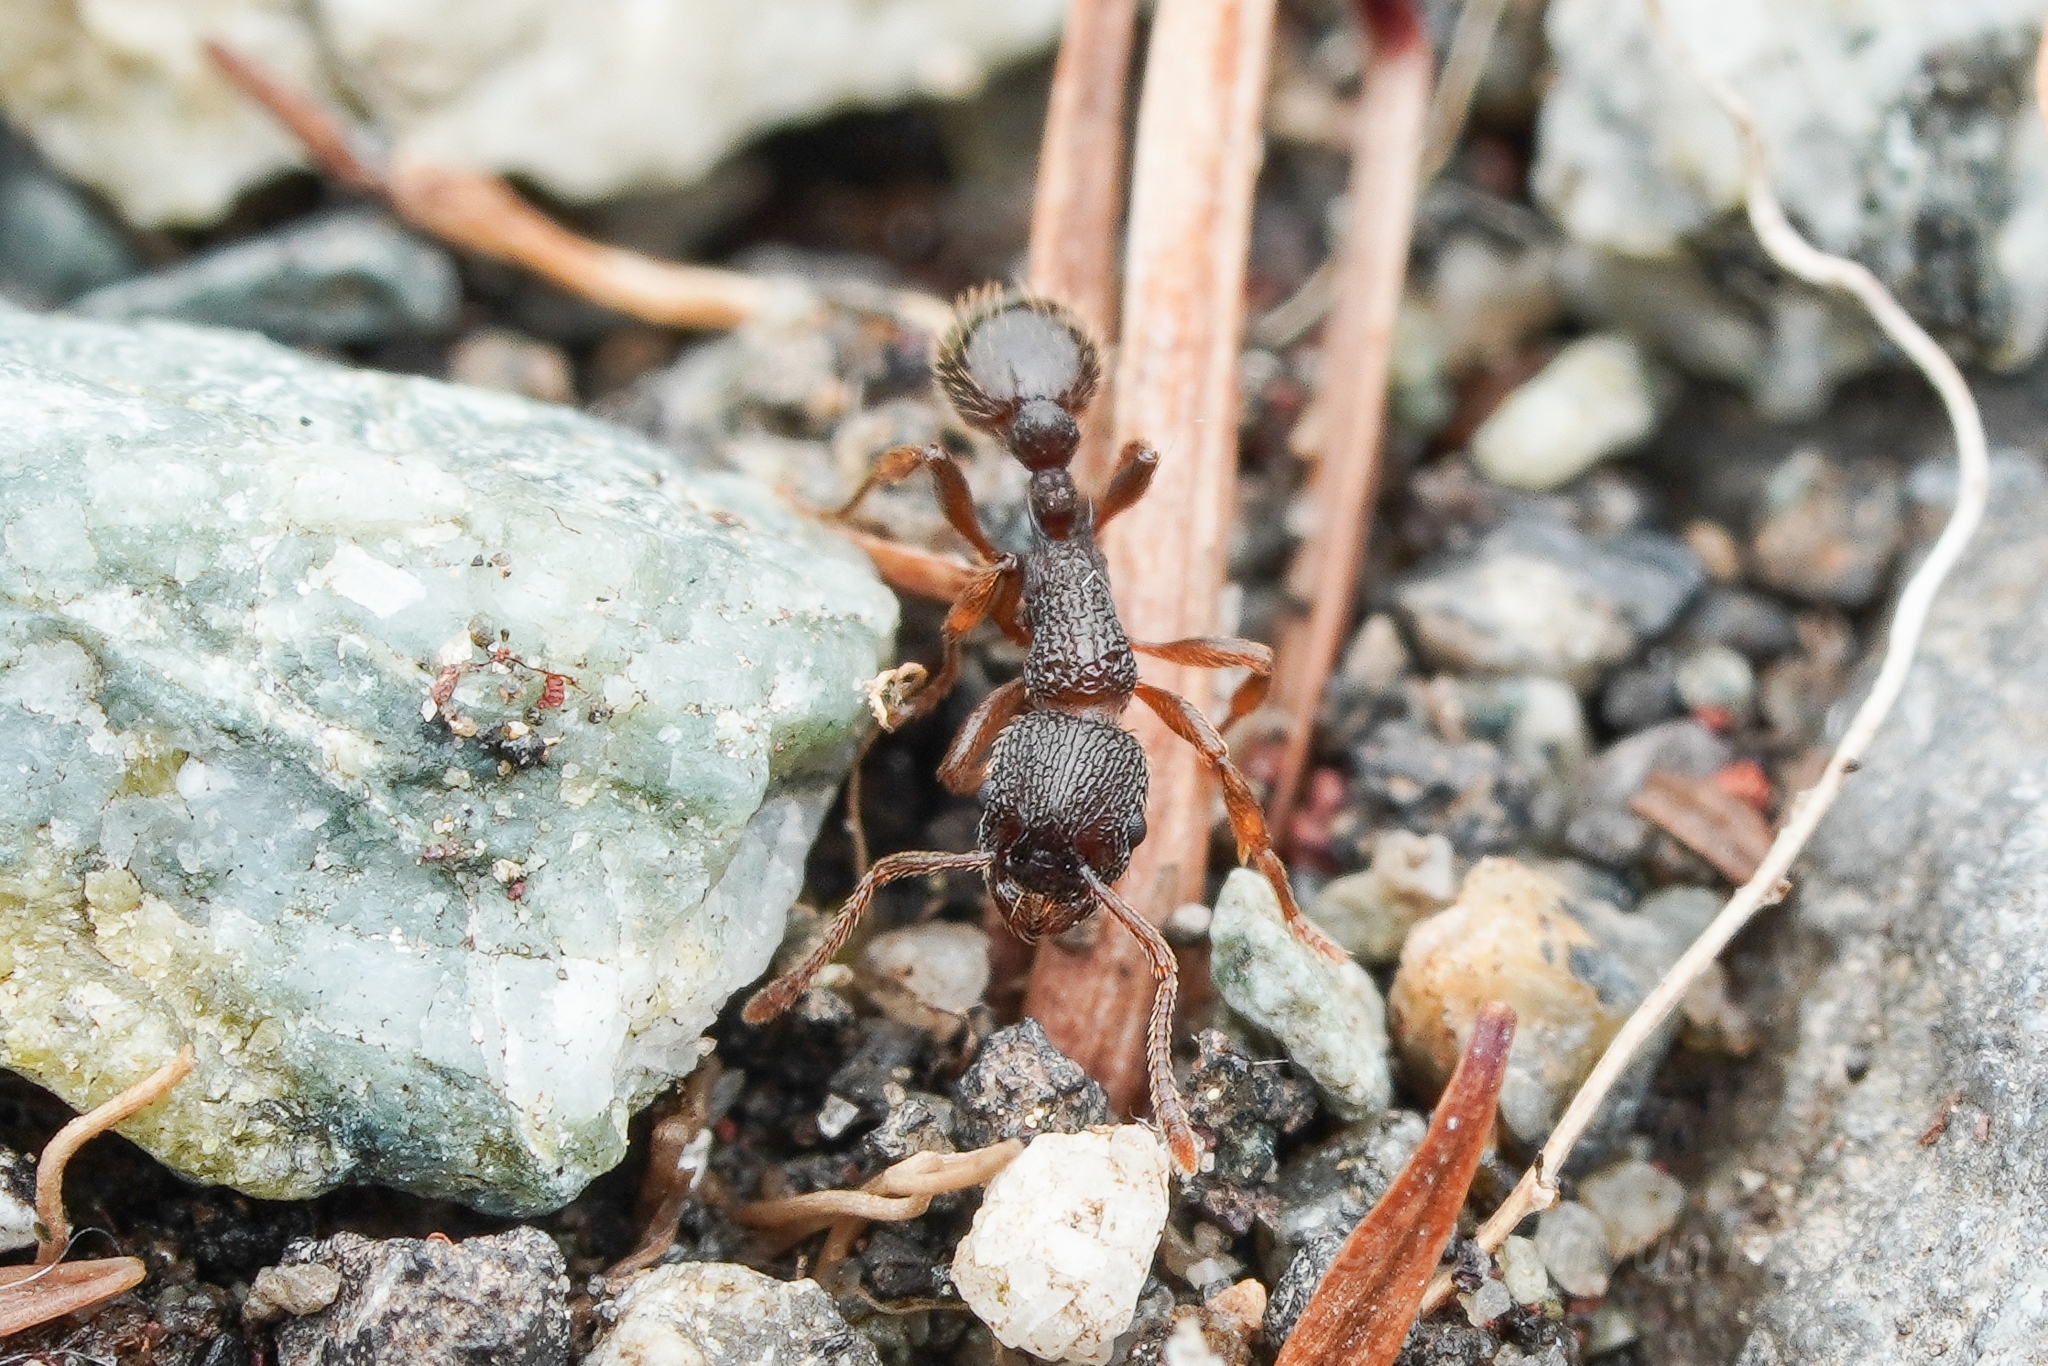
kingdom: Animalia
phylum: Arthropoda
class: Insecta
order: Hymenoptera
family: Formicidae
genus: Myrmica
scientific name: Myrmica
